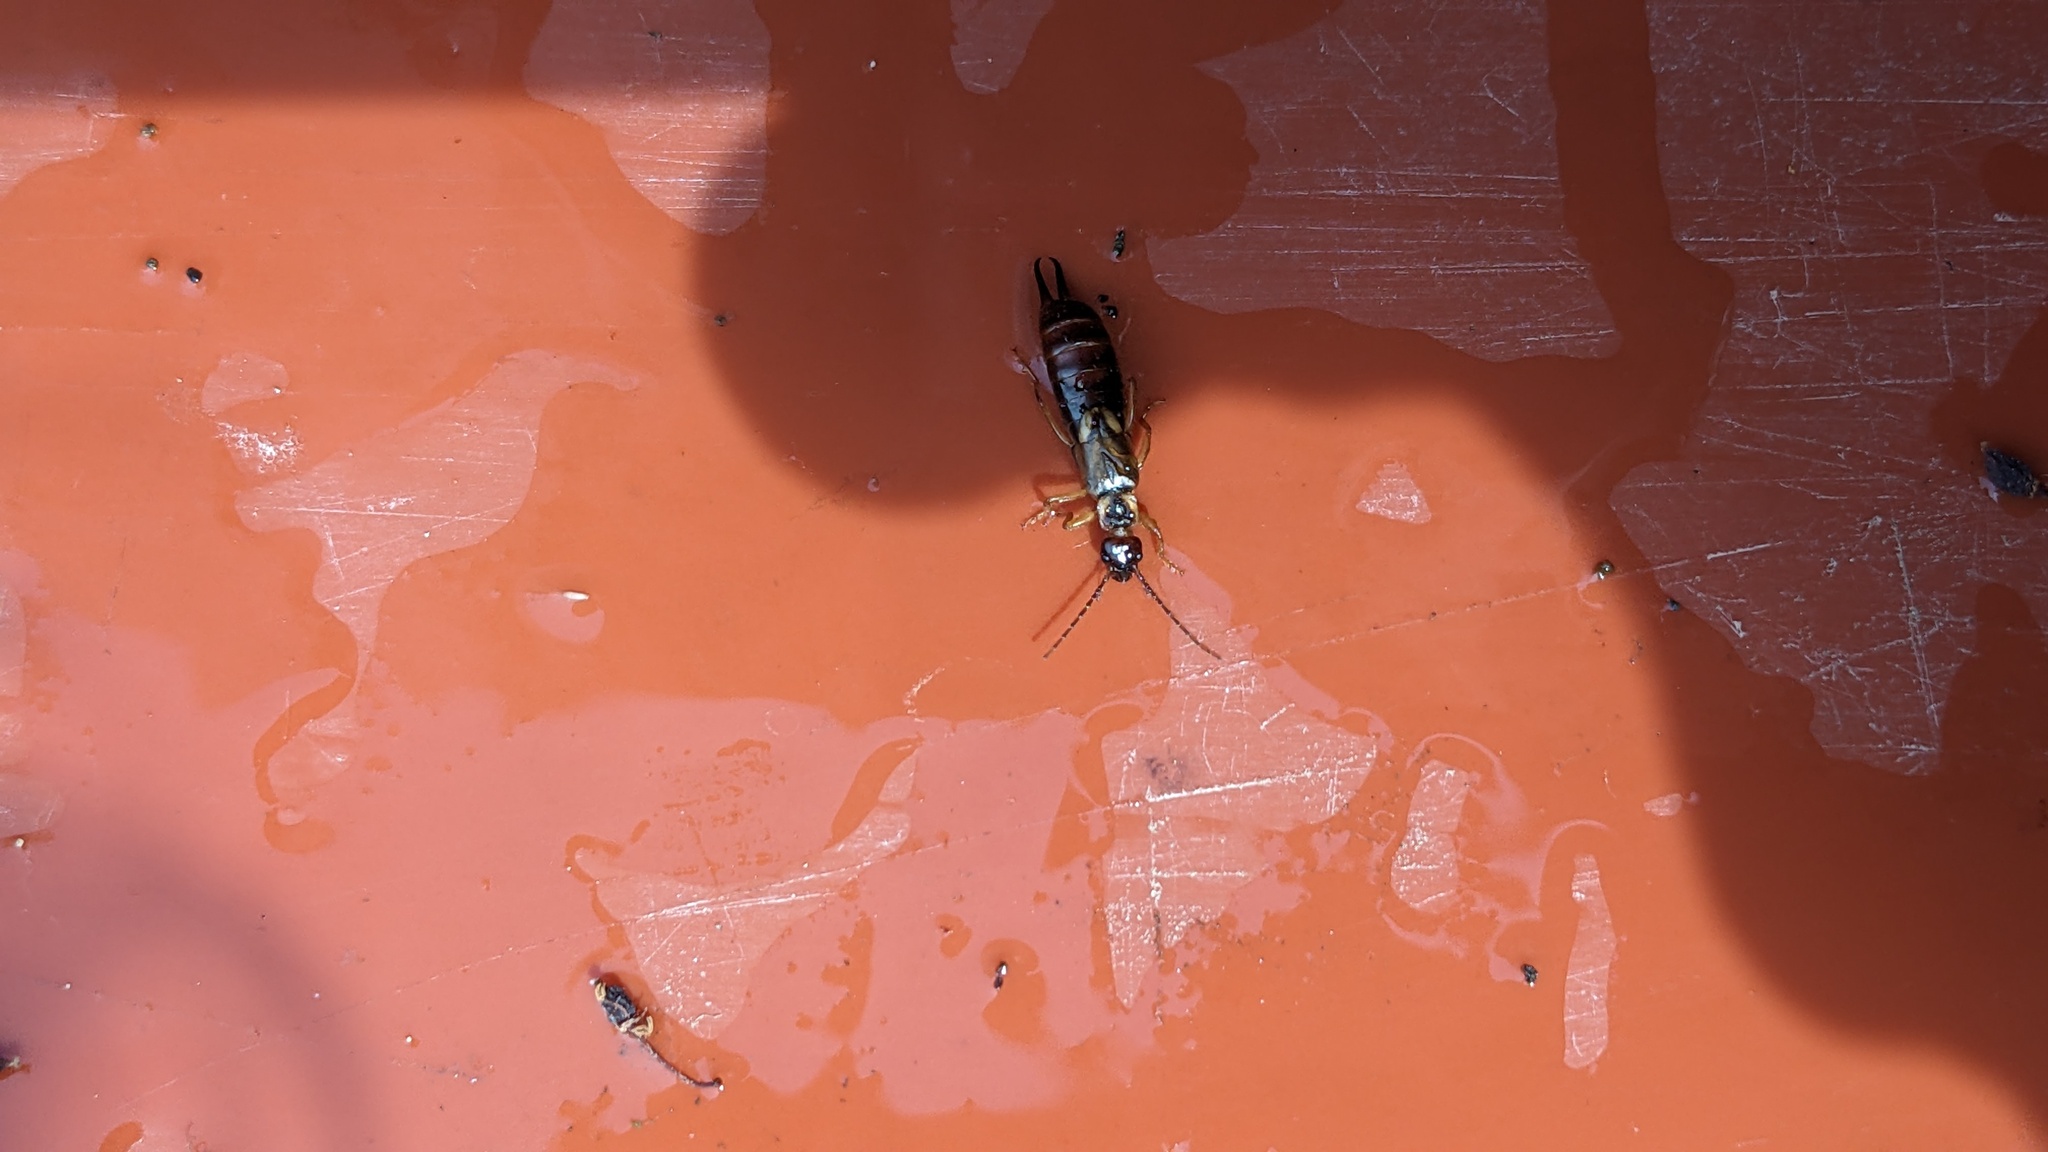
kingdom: Animalia
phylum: Arthropoda
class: Insecta
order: Dermaptera
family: Forficulidae
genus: Forficula
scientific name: Forficula auricularia
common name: European earwig
